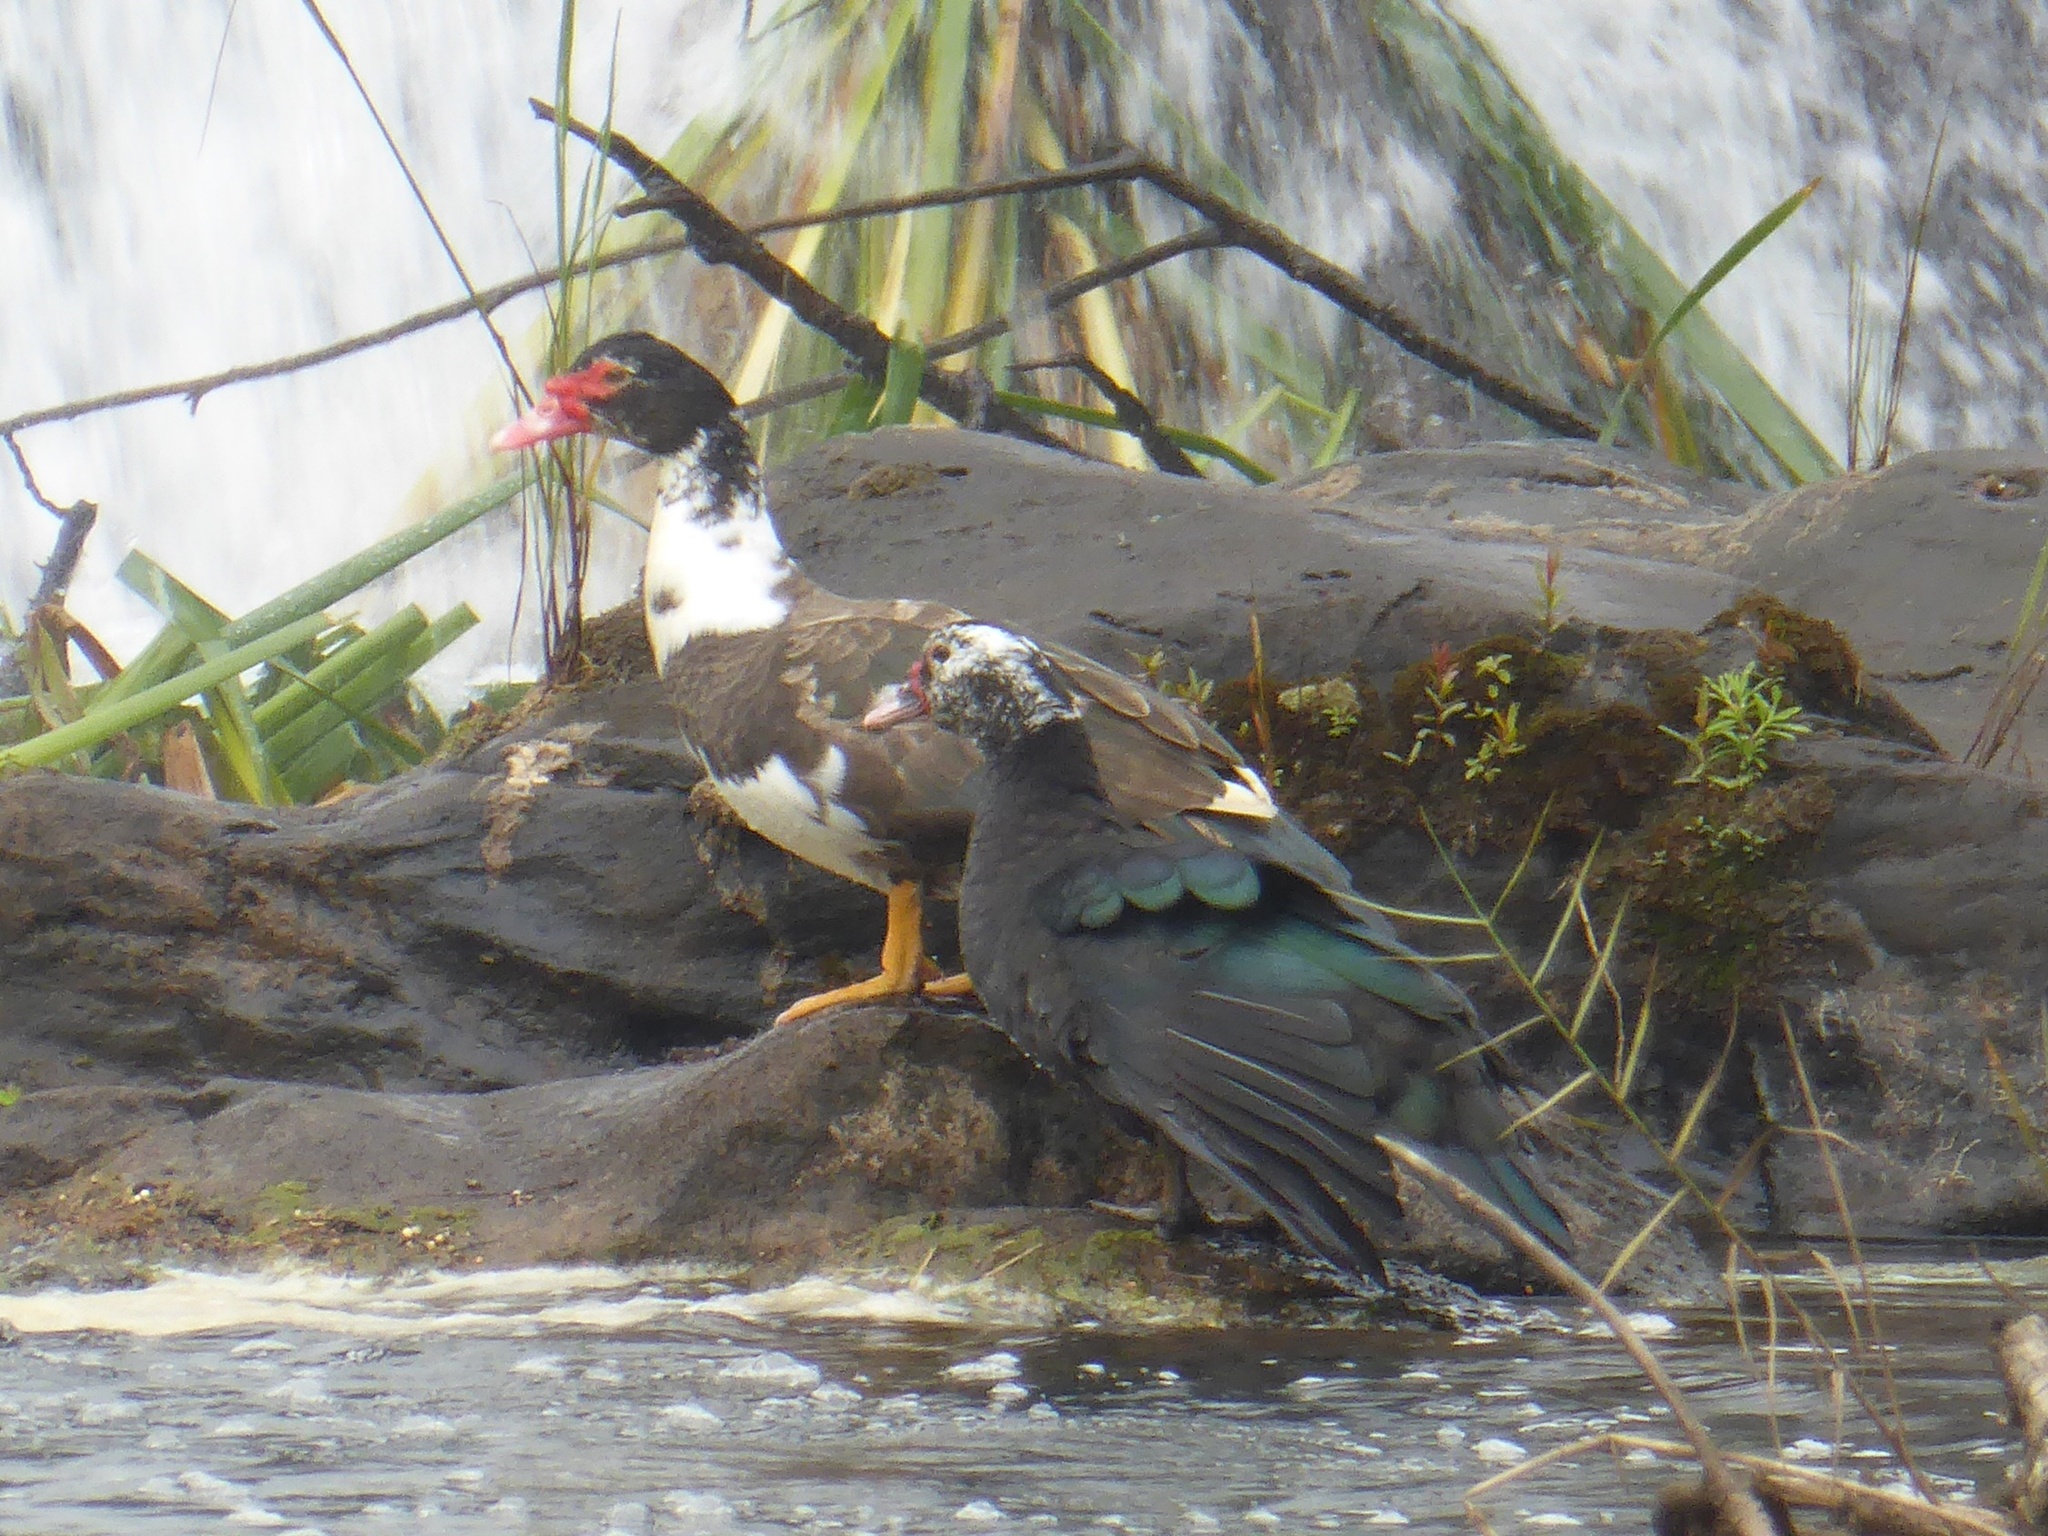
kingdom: Animalia
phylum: Chordata
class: Aves
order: Anseriformes
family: Anatidae
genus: Cairina
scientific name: Cairina moschata
